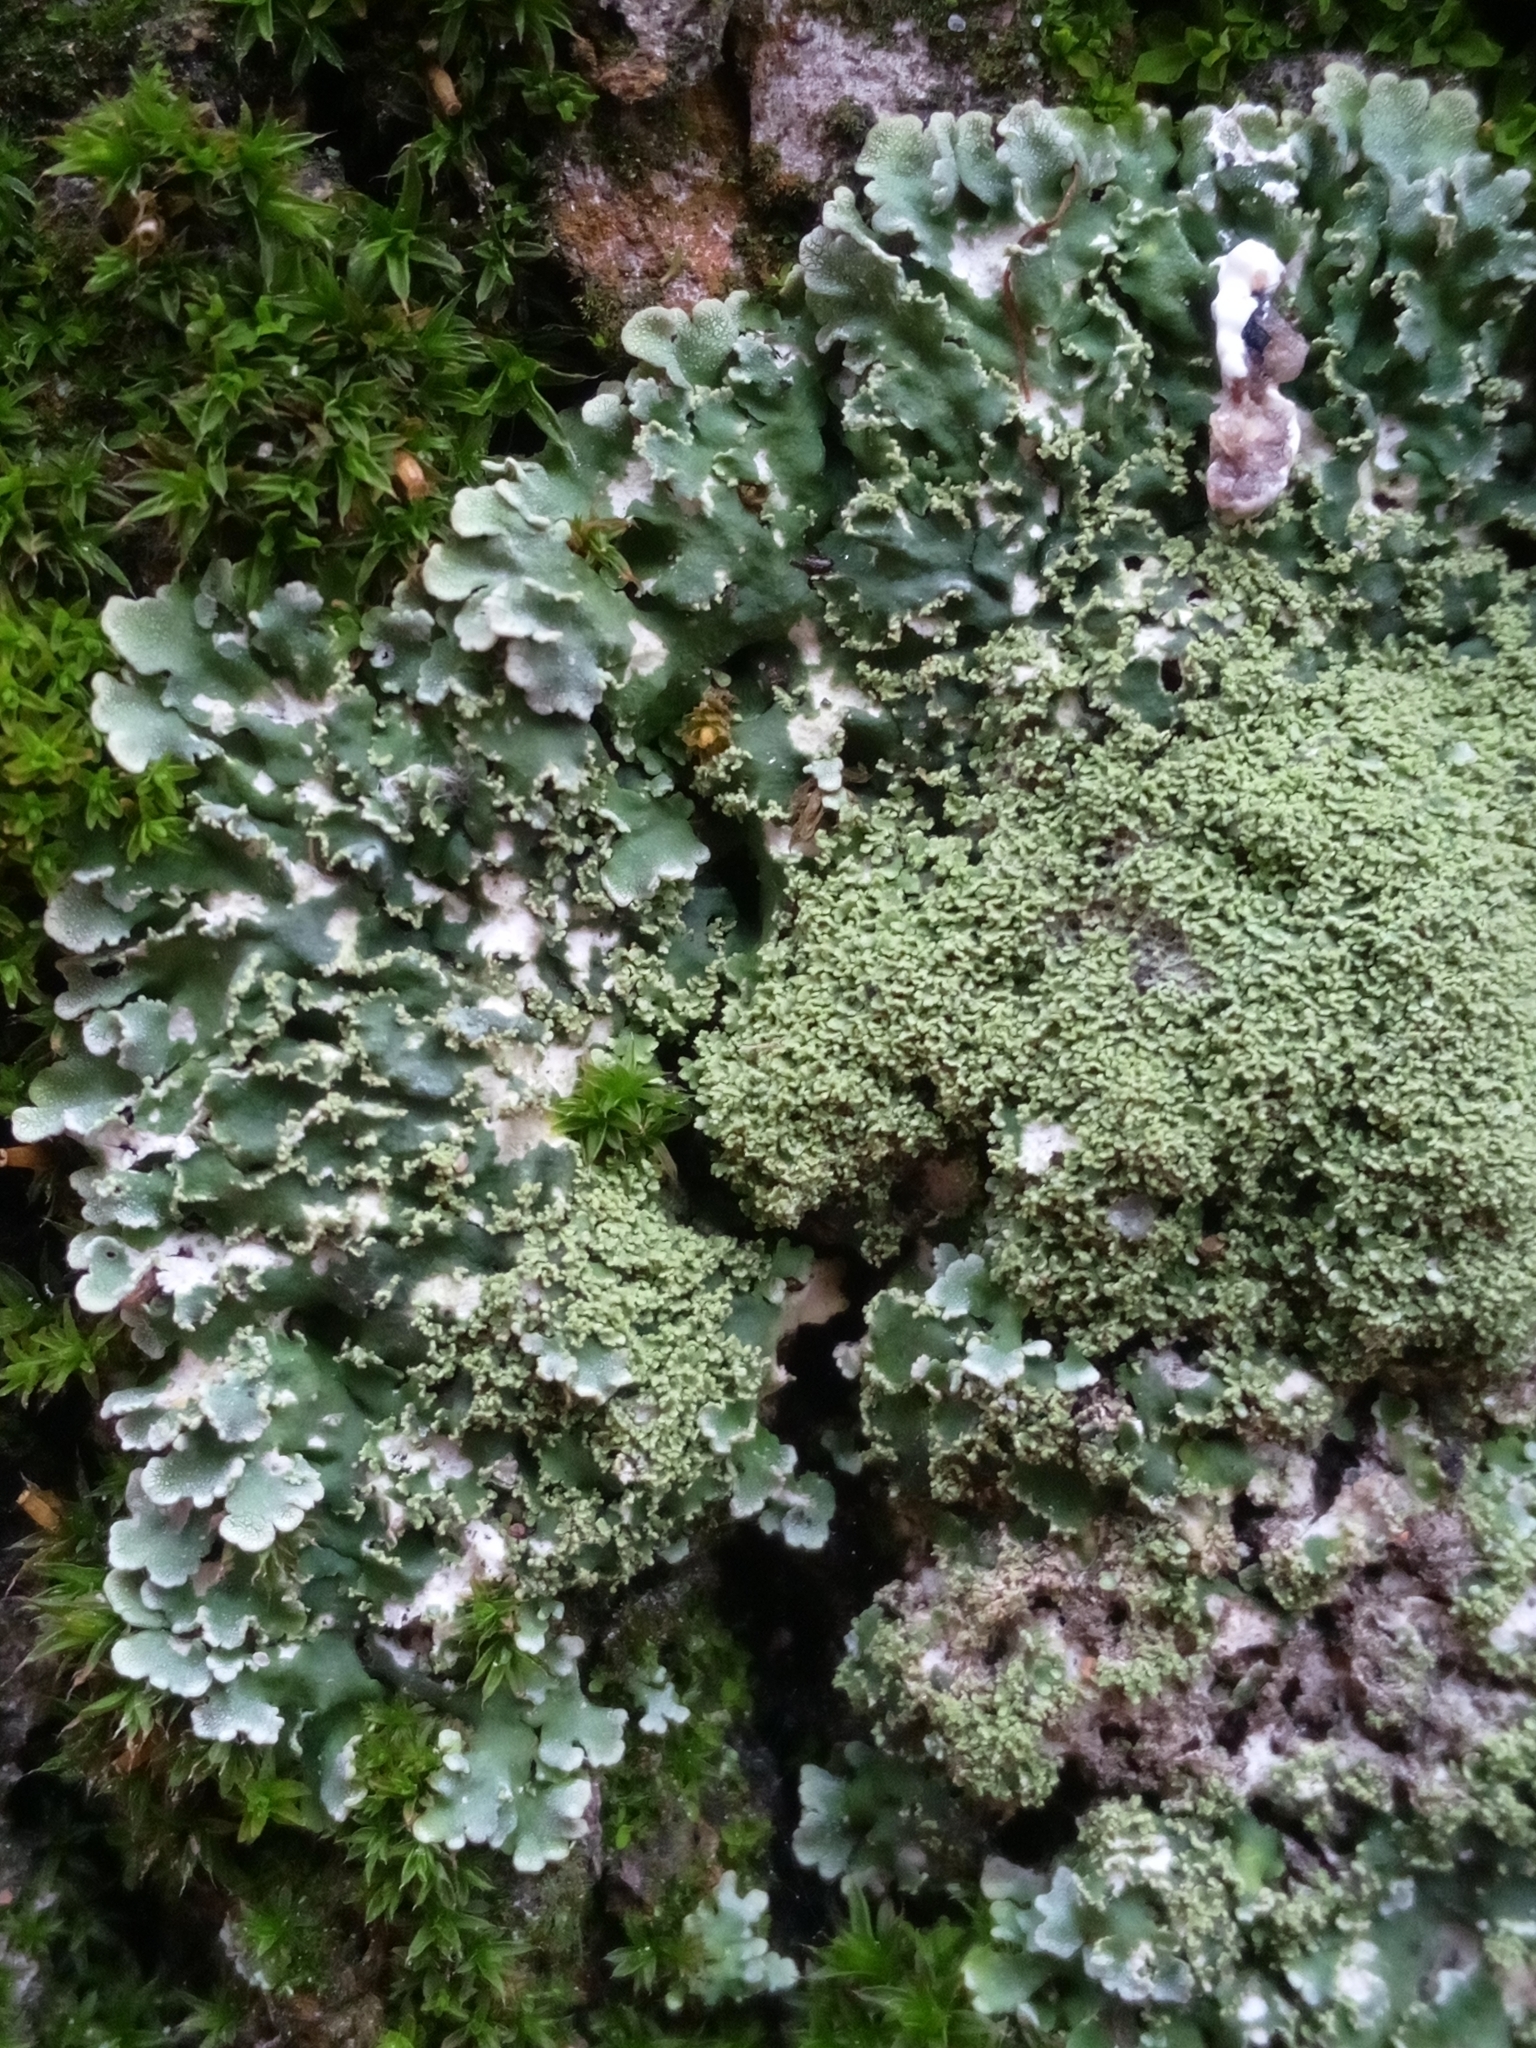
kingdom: Fungi
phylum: Ascomycota
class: Lecanoromycetes
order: Caliciales
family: Physciaceae
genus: Physconia
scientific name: Physconia
